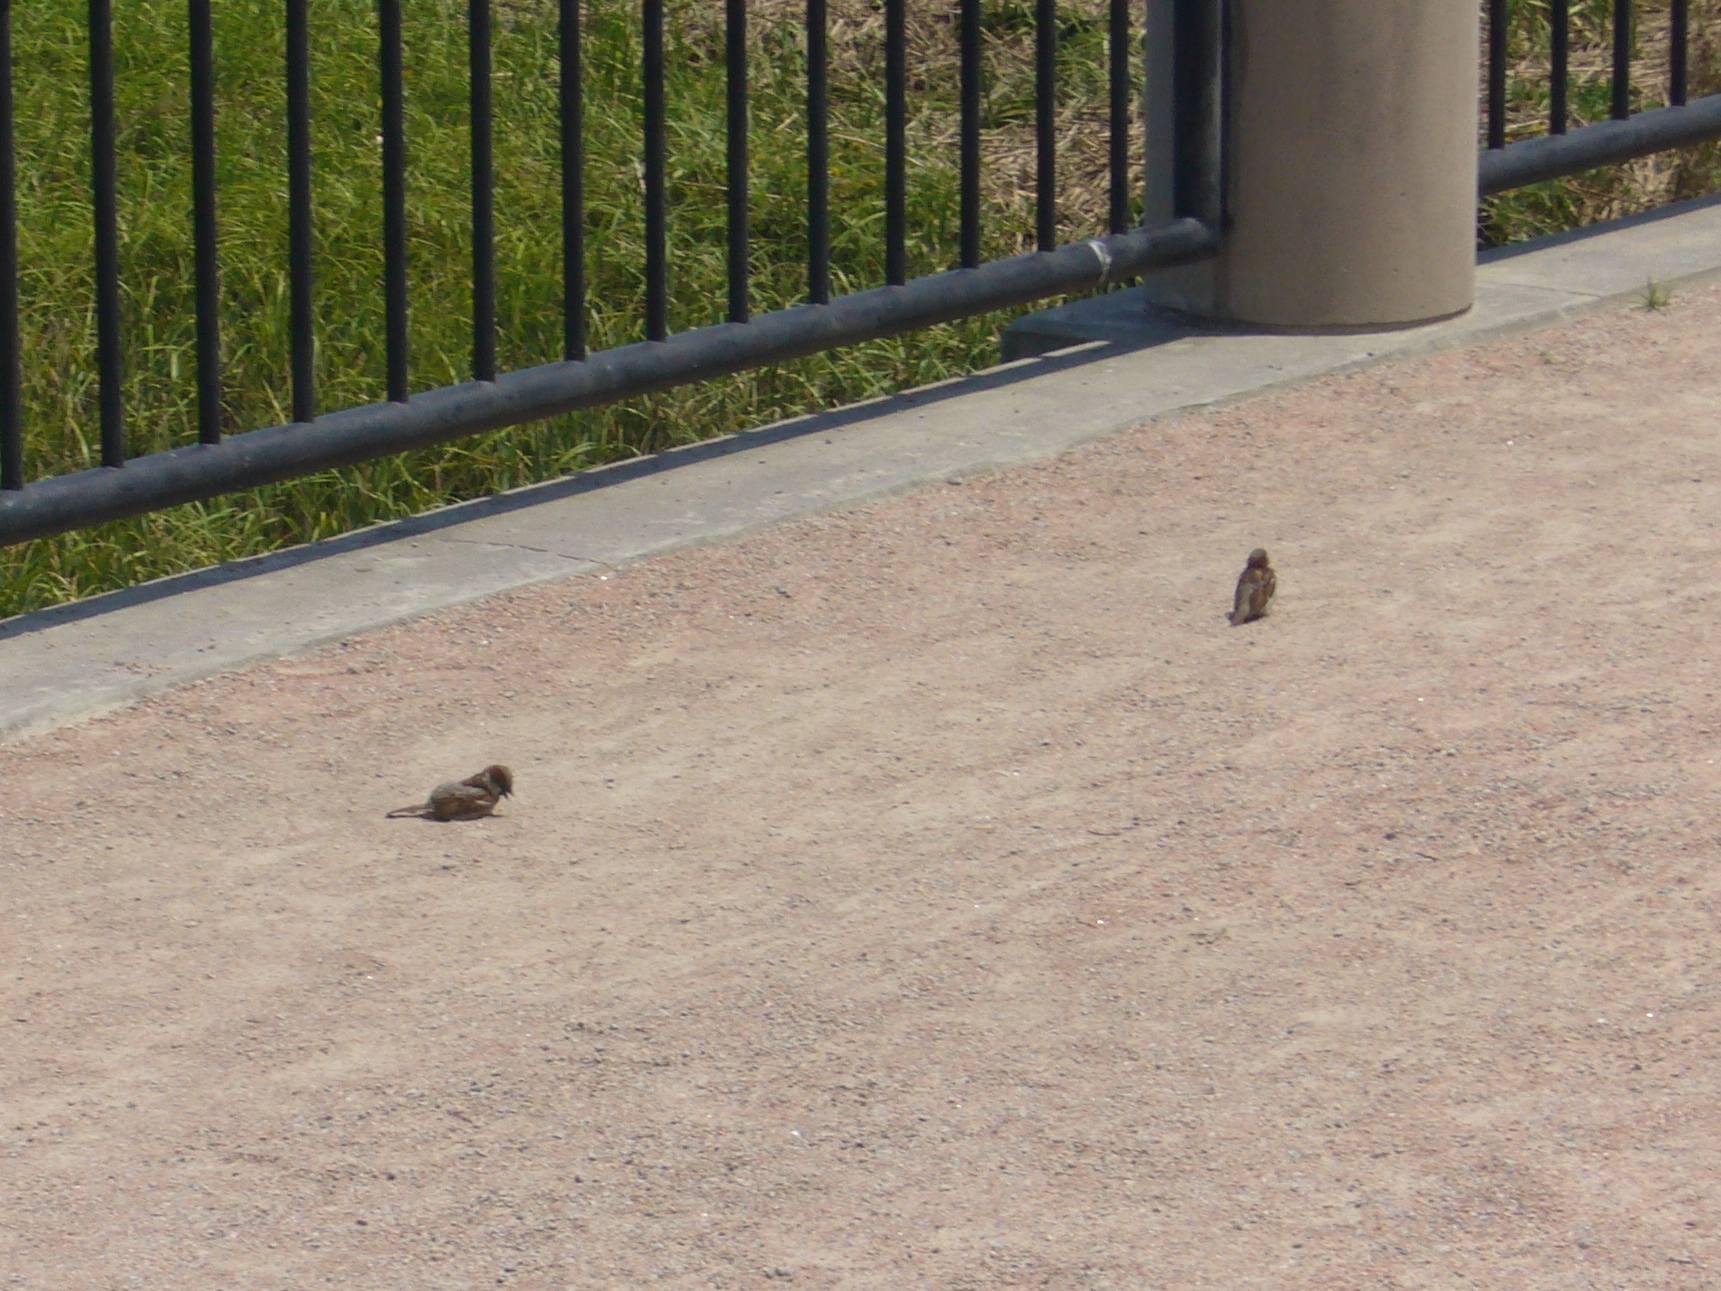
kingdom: Animalia
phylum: Chordata
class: Aves
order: Passeriformes
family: Passeridae
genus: Passer
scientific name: Passer domesticus
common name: House sparrow
